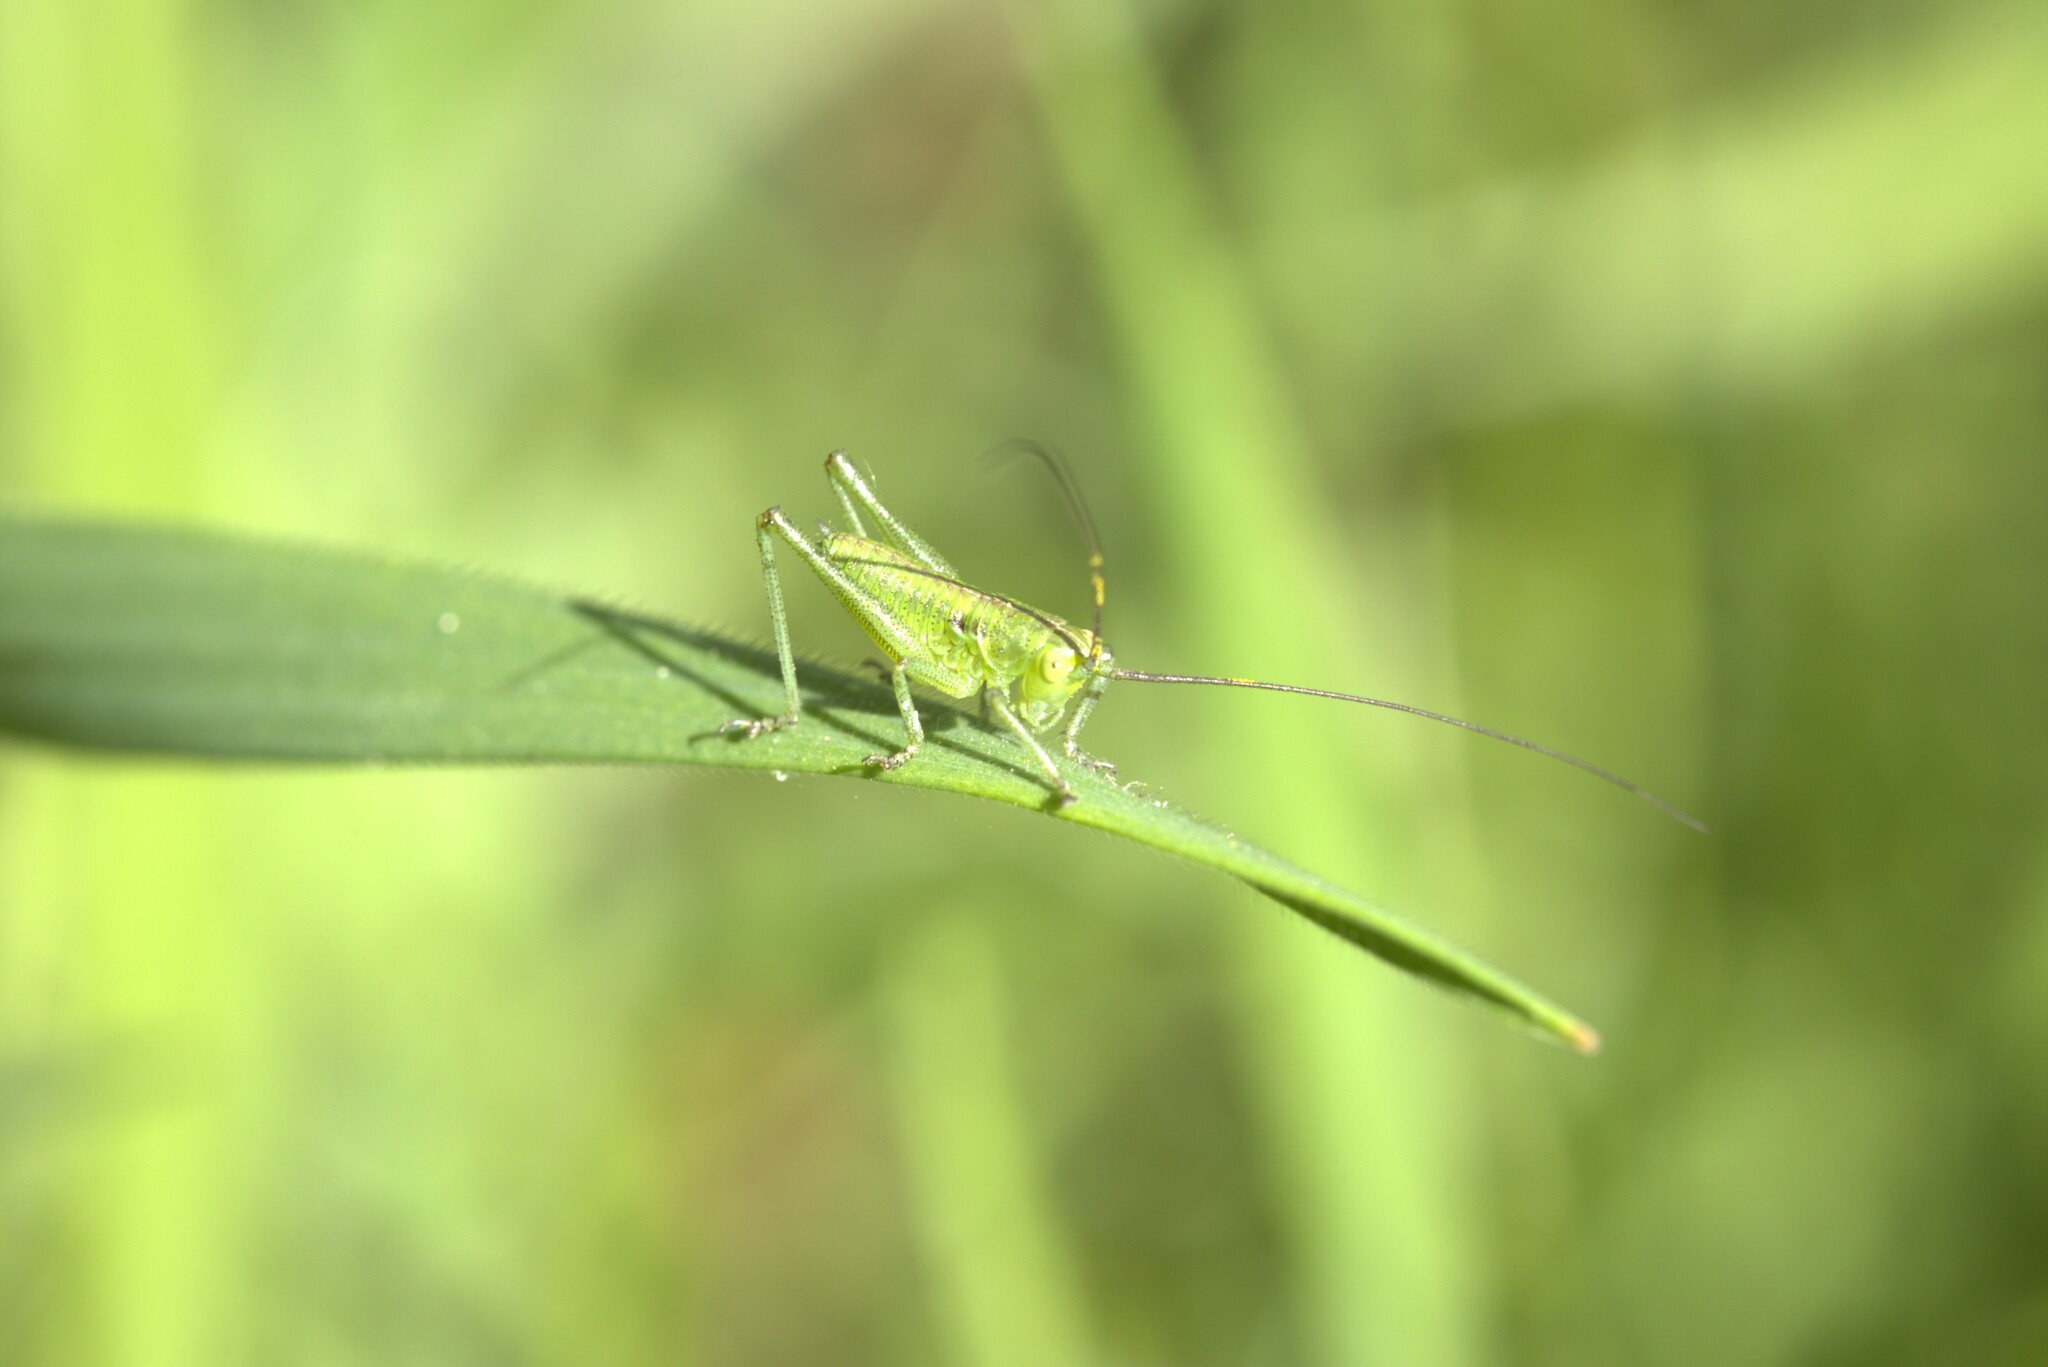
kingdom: Animalia
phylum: Arthropoda
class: Insecta
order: Orthoptera
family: Tettigoniidae
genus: Tettigonia
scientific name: Tettigonia viridissima
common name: Great green bush-cricket
